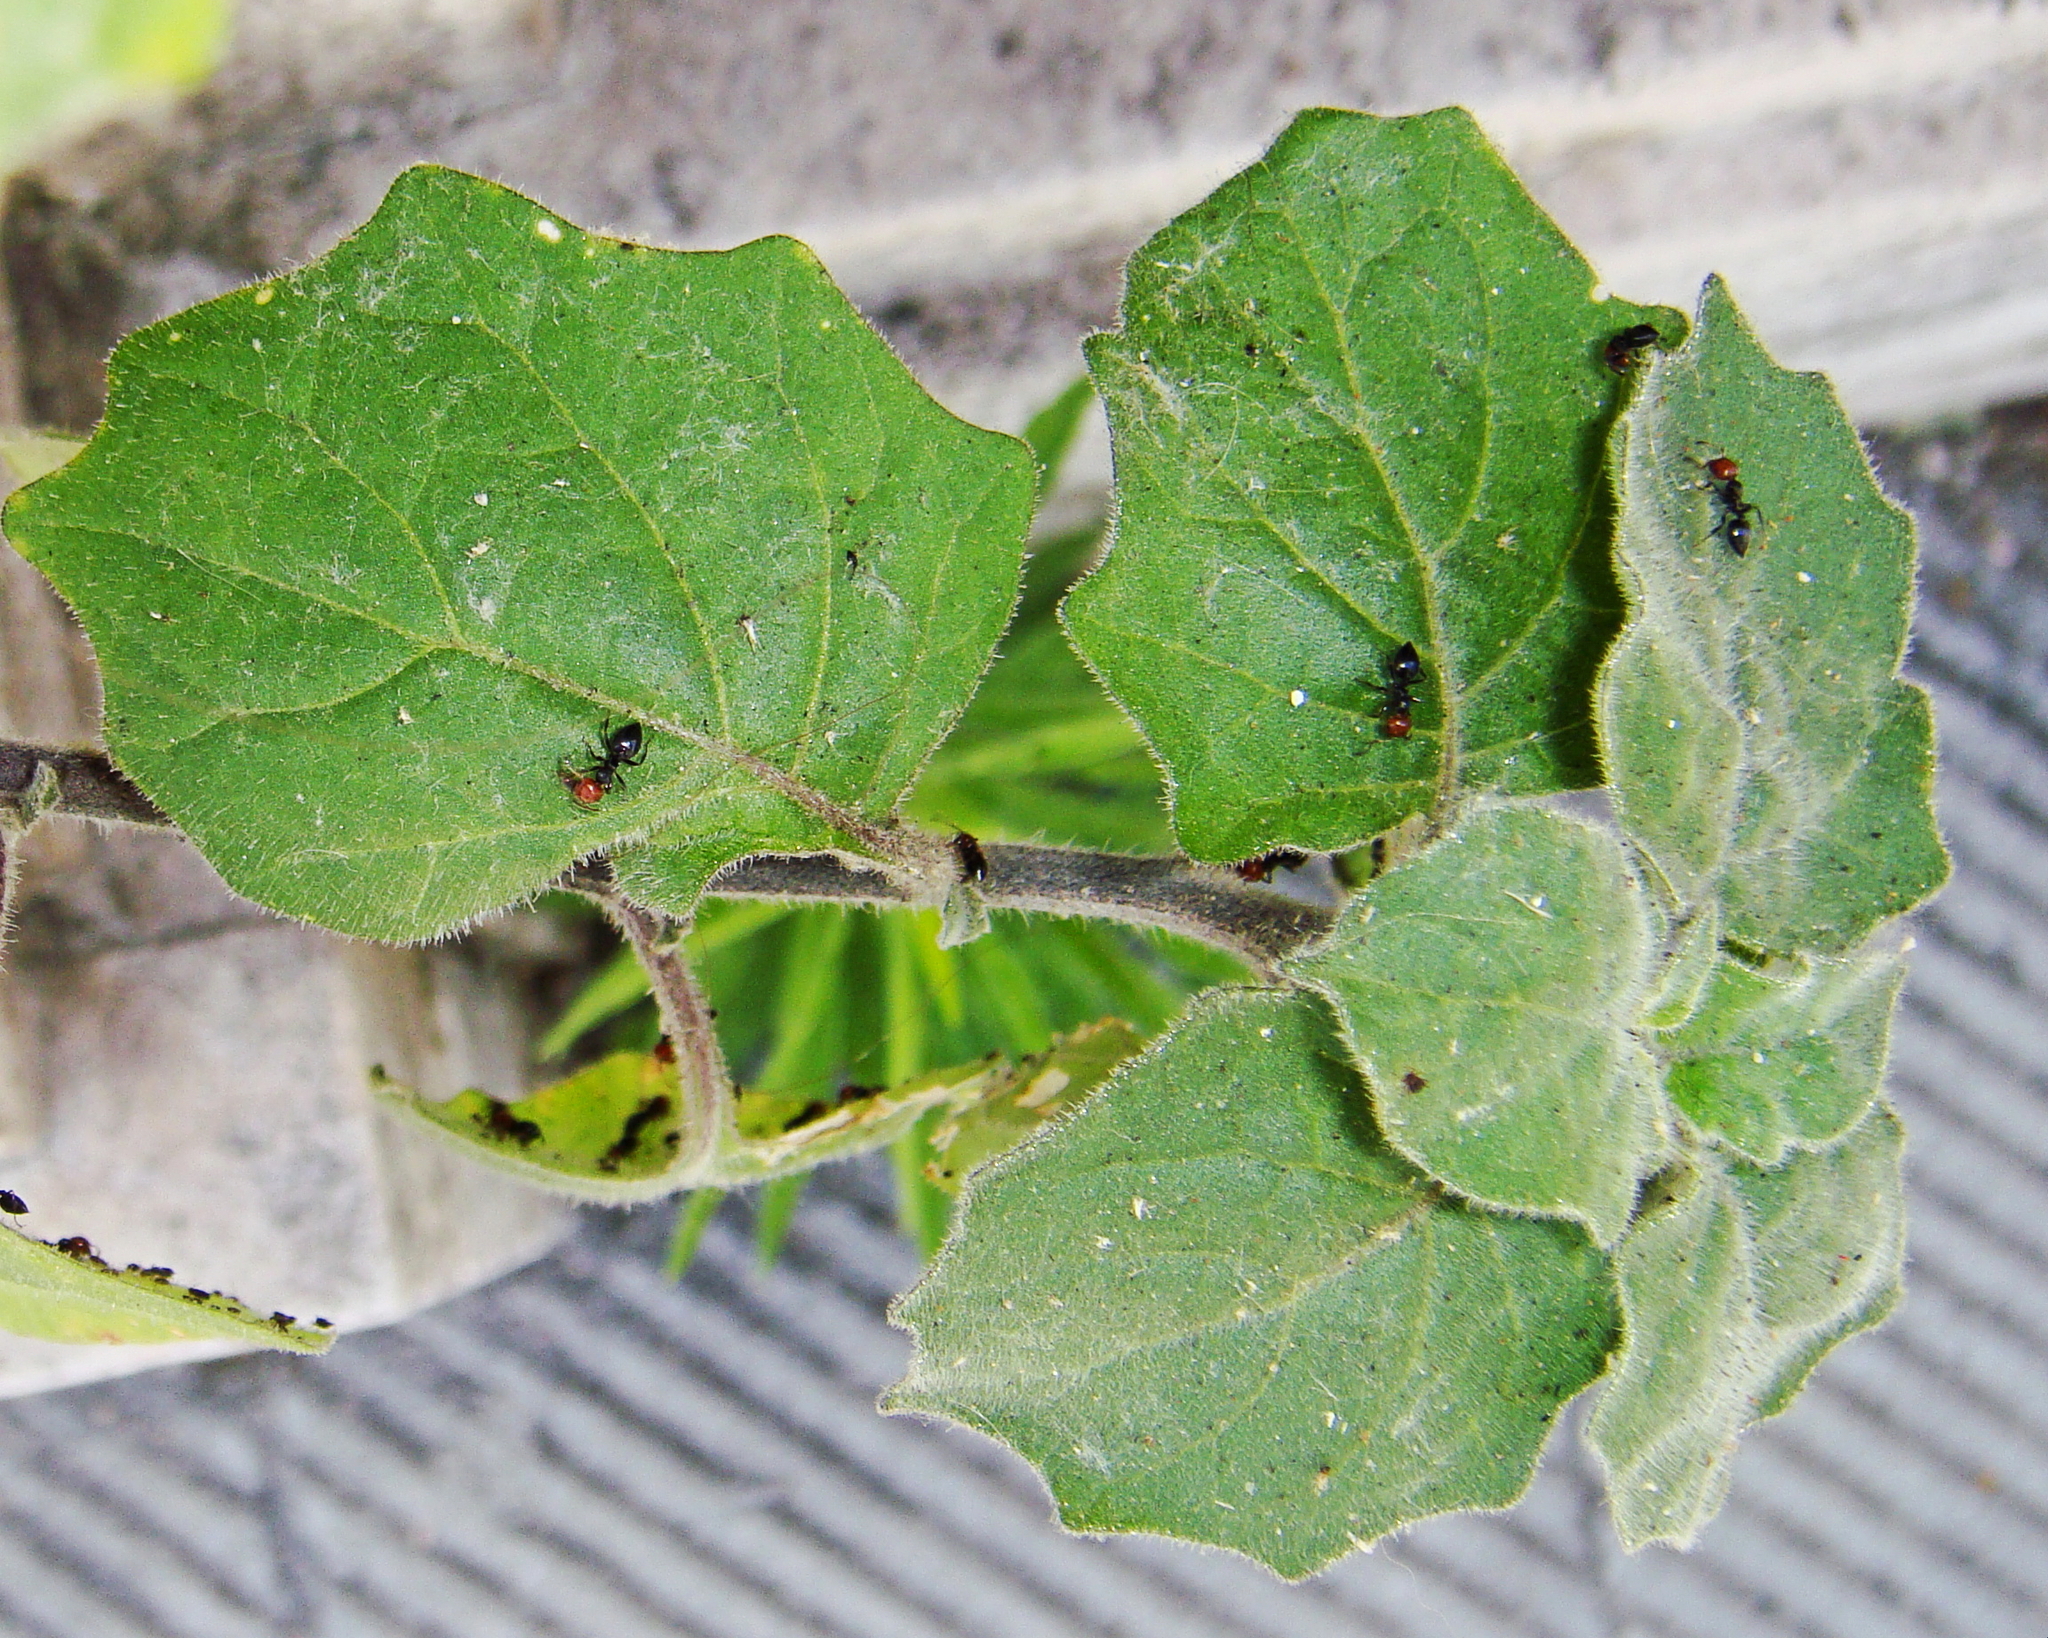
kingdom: Animalia
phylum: Arthropoda
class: Insecta
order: Hymenoptera
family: Formicidae
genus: Crematogaster
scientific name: Crematogaster scutellaris
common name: Fourmi du liège
